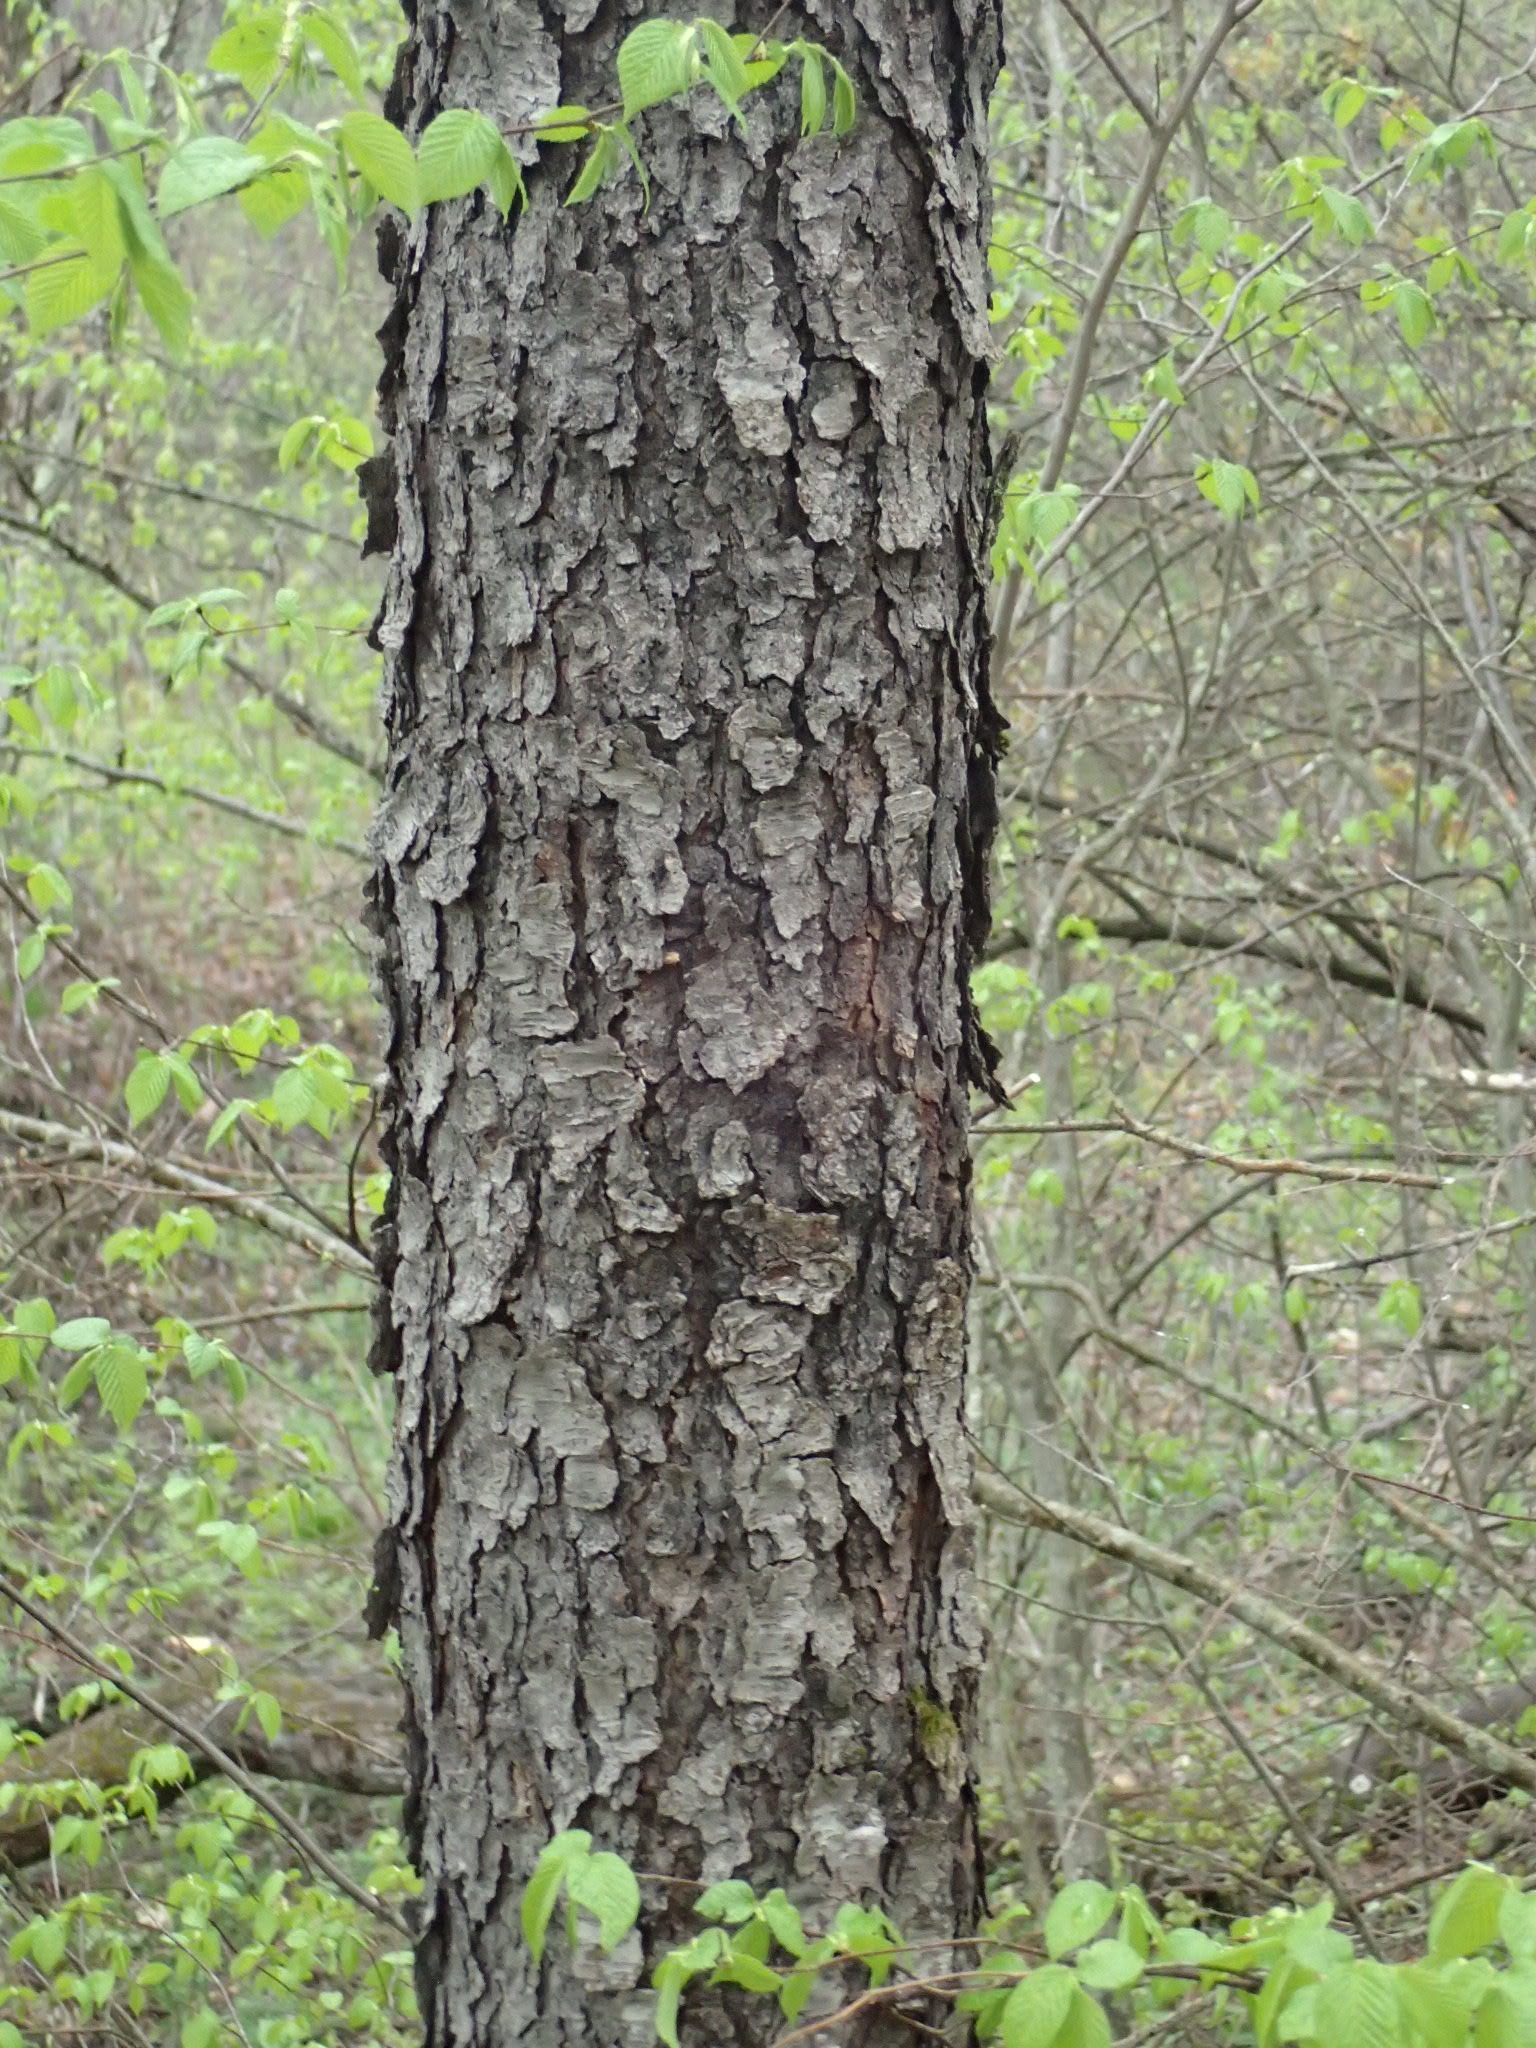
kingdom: Plantae
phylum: Tracheophyta
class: Magnoliopsida
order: Rosales
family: Rosaceae
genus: Prunus
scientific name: Prunus serotina
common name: Black cherry
